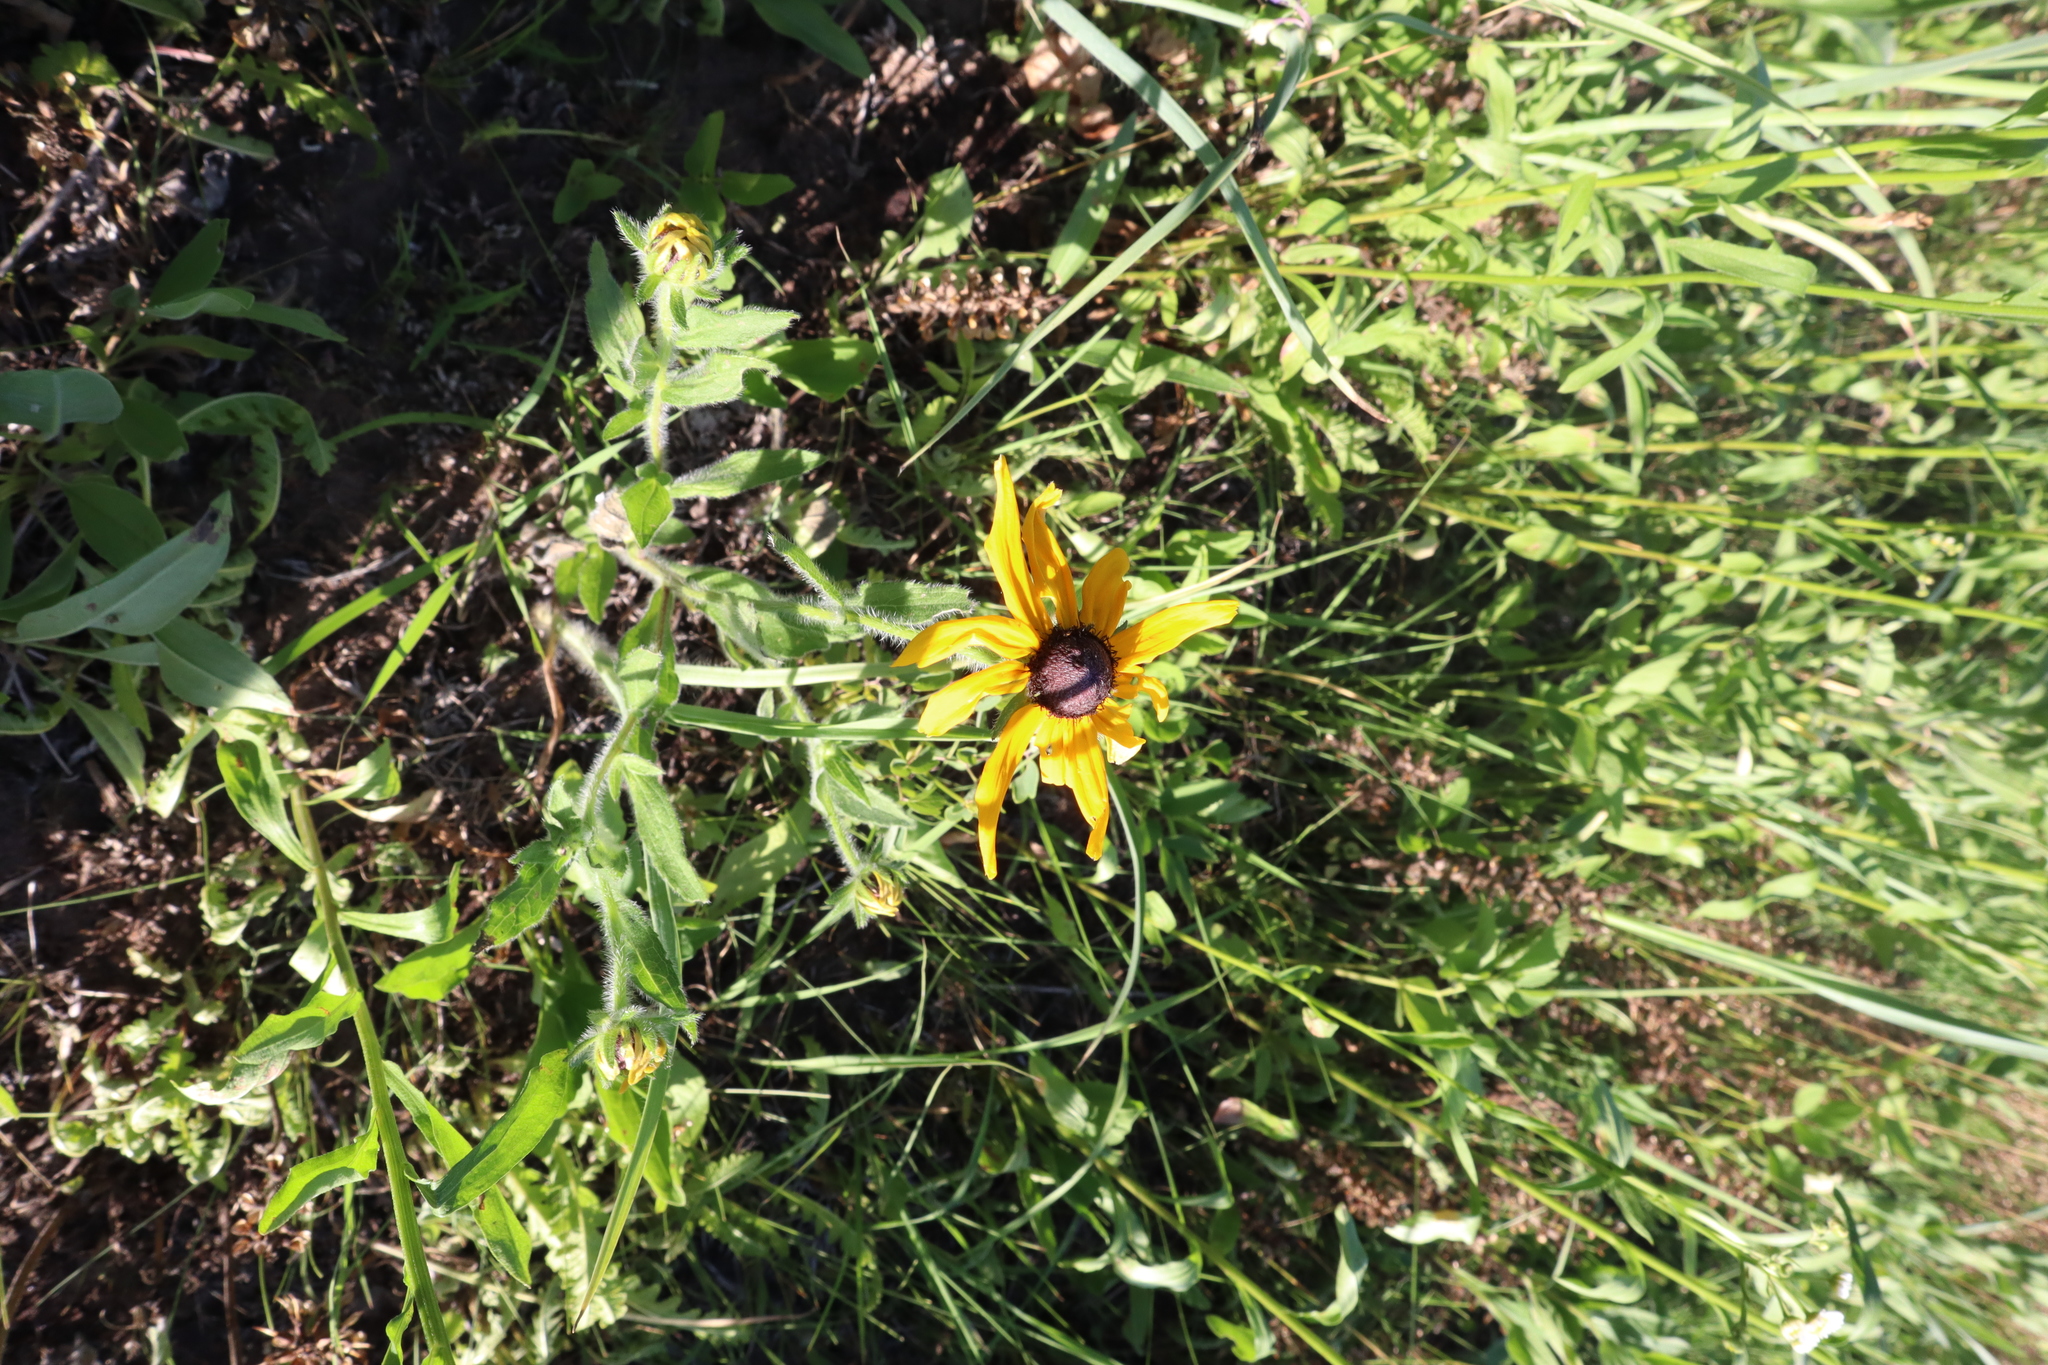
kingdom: Plantae
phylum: Tracheophyta
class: Magnoliopsida
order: Asterales
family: Asteraceae
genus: Rudbeckia
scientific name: Rudbeckia hirta
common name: Black-eyed-susan
